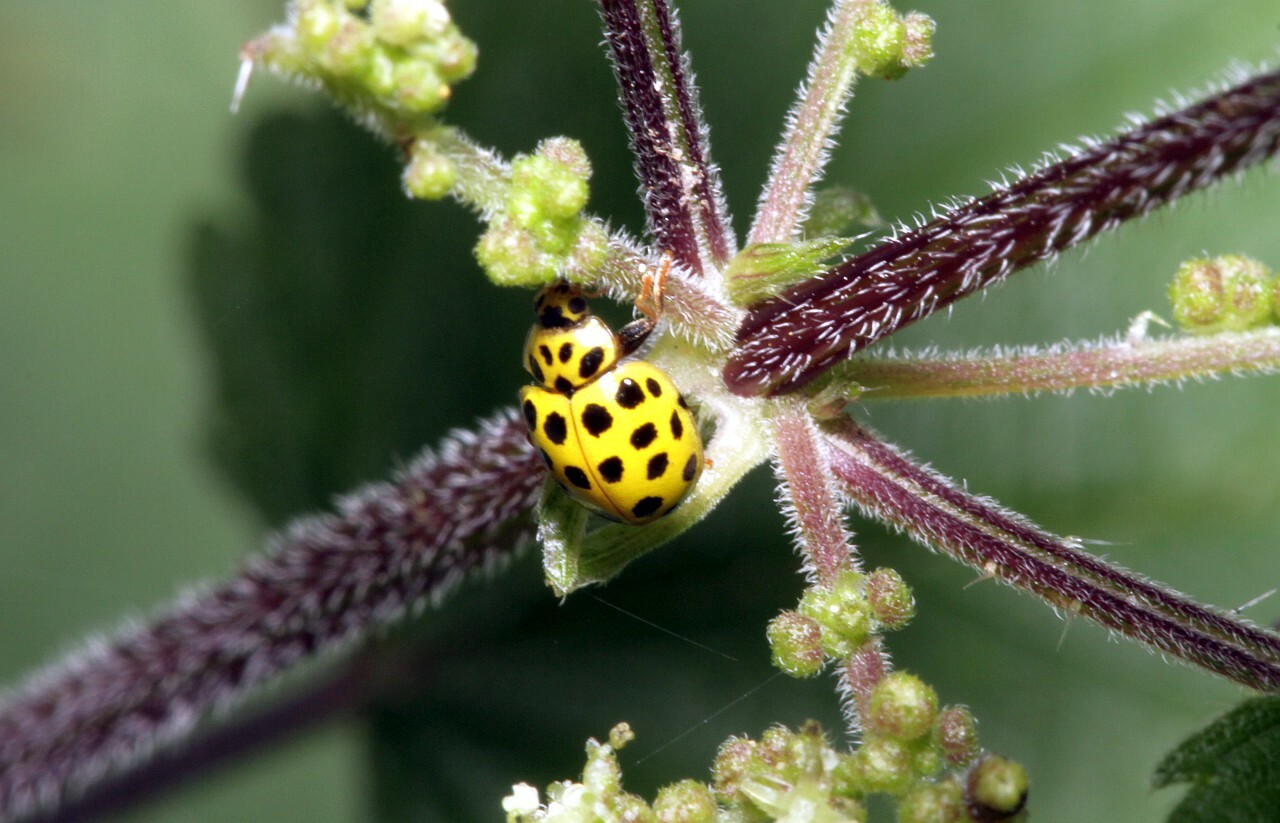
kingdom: Animalia
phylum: Arthropoda
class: Insecta
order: Coleoptera
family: Coccinellidae
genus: Psyllobora
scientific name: Psyllobora vigintiduopunctata
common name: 22-spot ladybird
